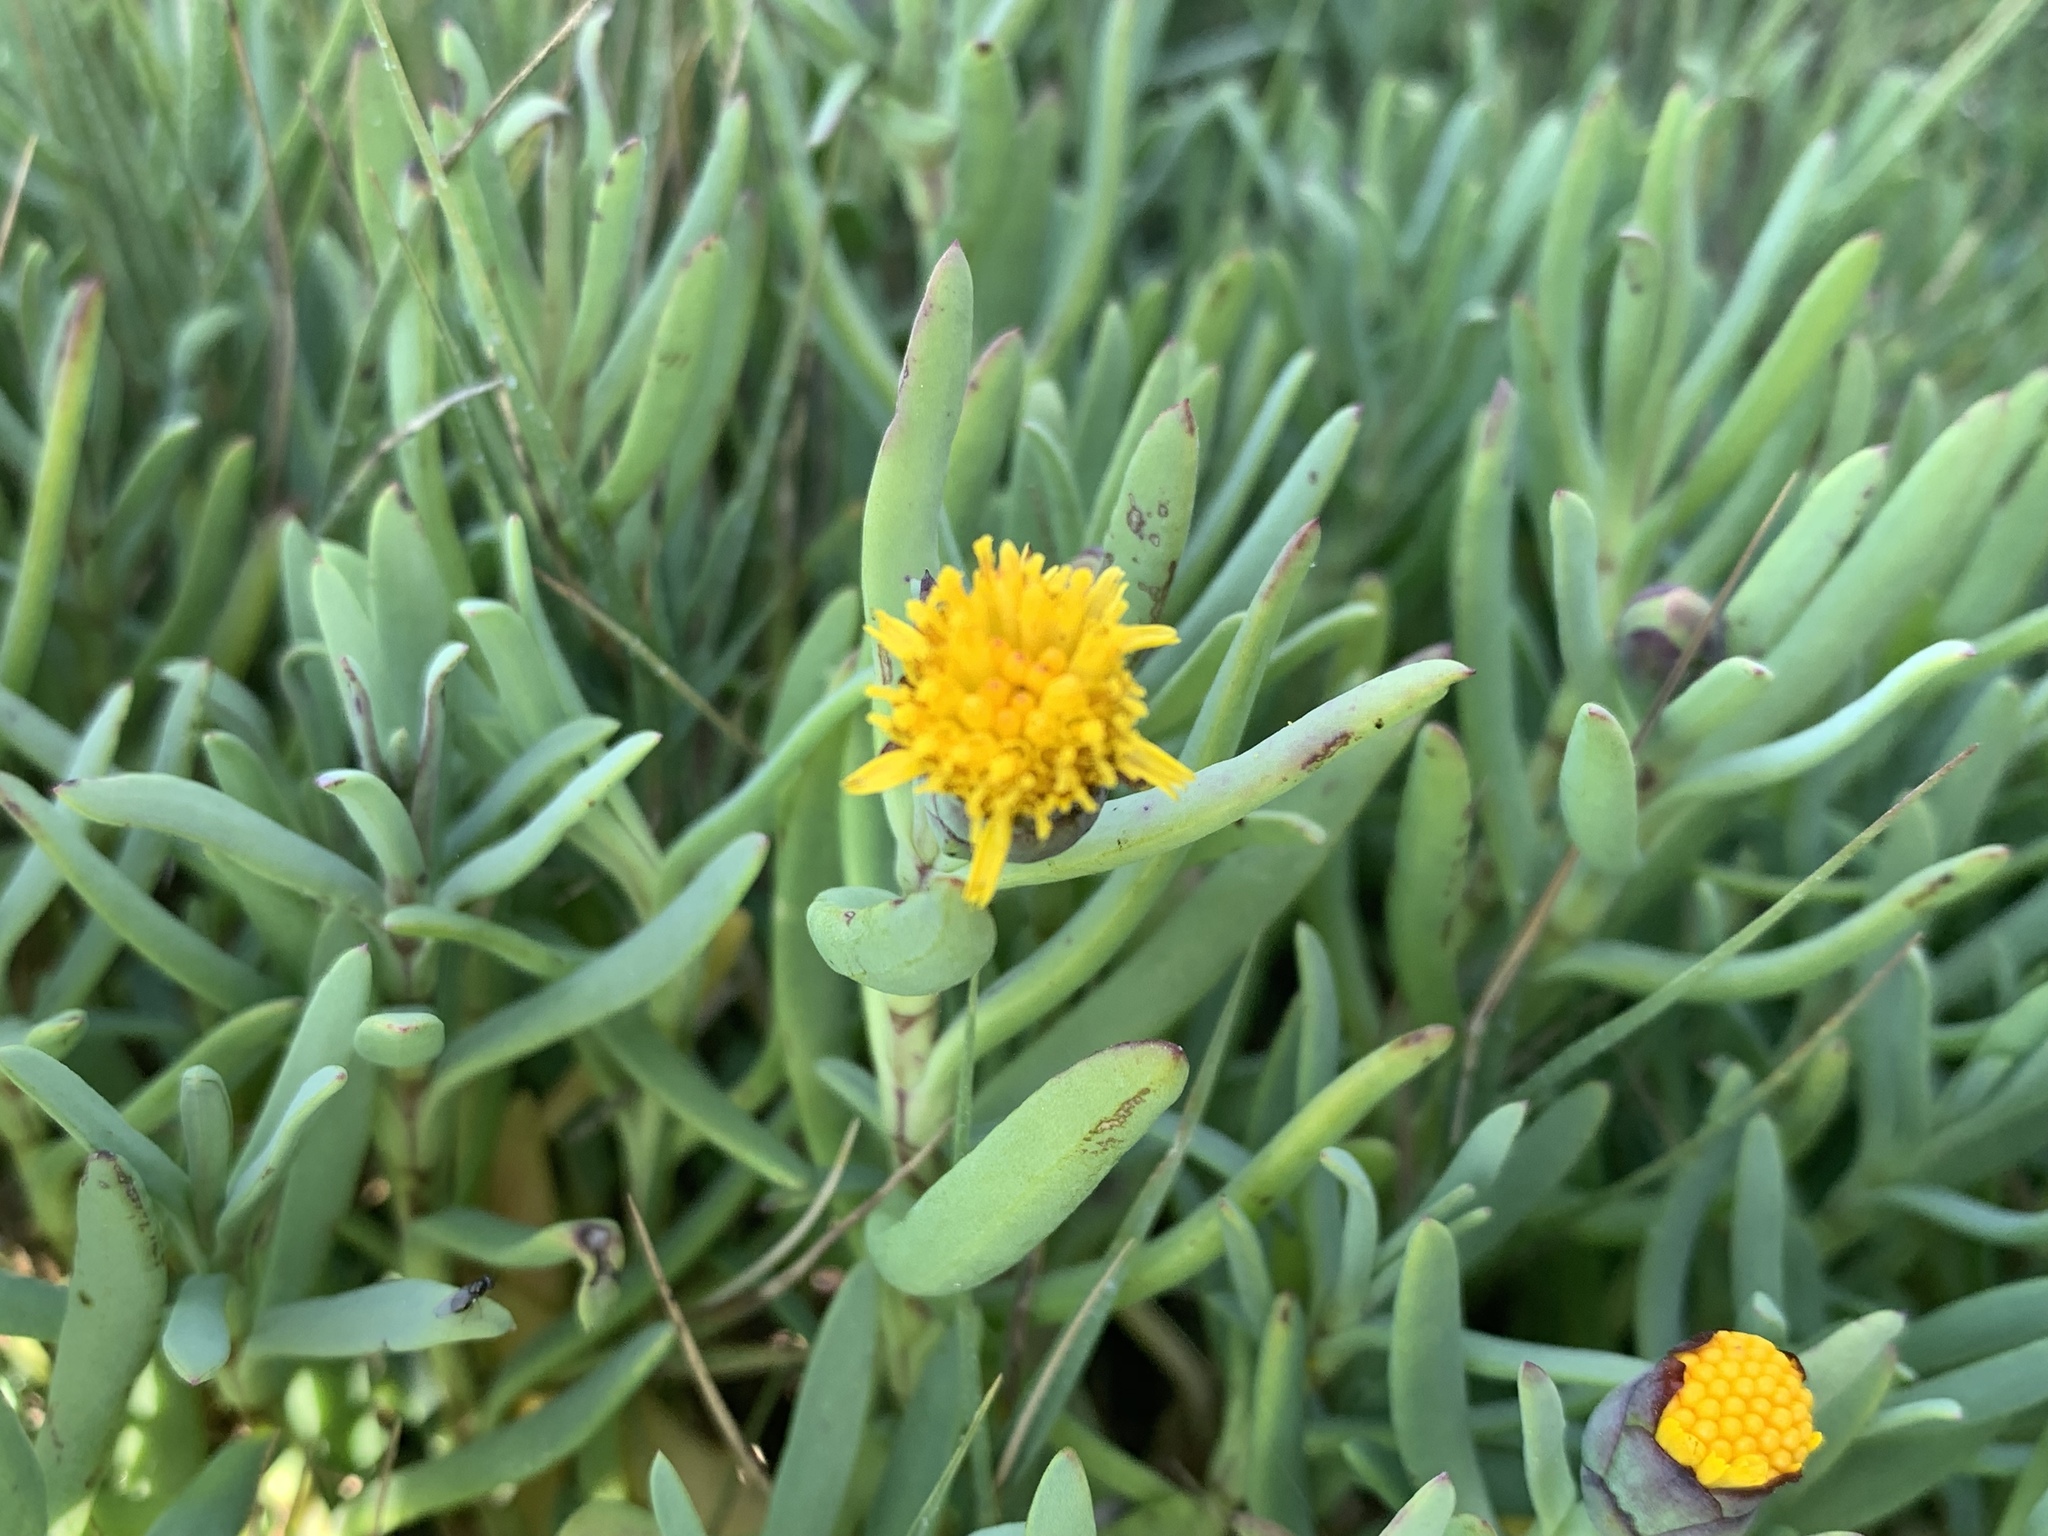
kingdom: Plantae
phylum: Tracheophyta
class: Magnoliopsida
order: Asterales
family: Asteraceae
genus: Jaumea
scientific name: Jaumea carnosa
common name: Fleshy jaumea
